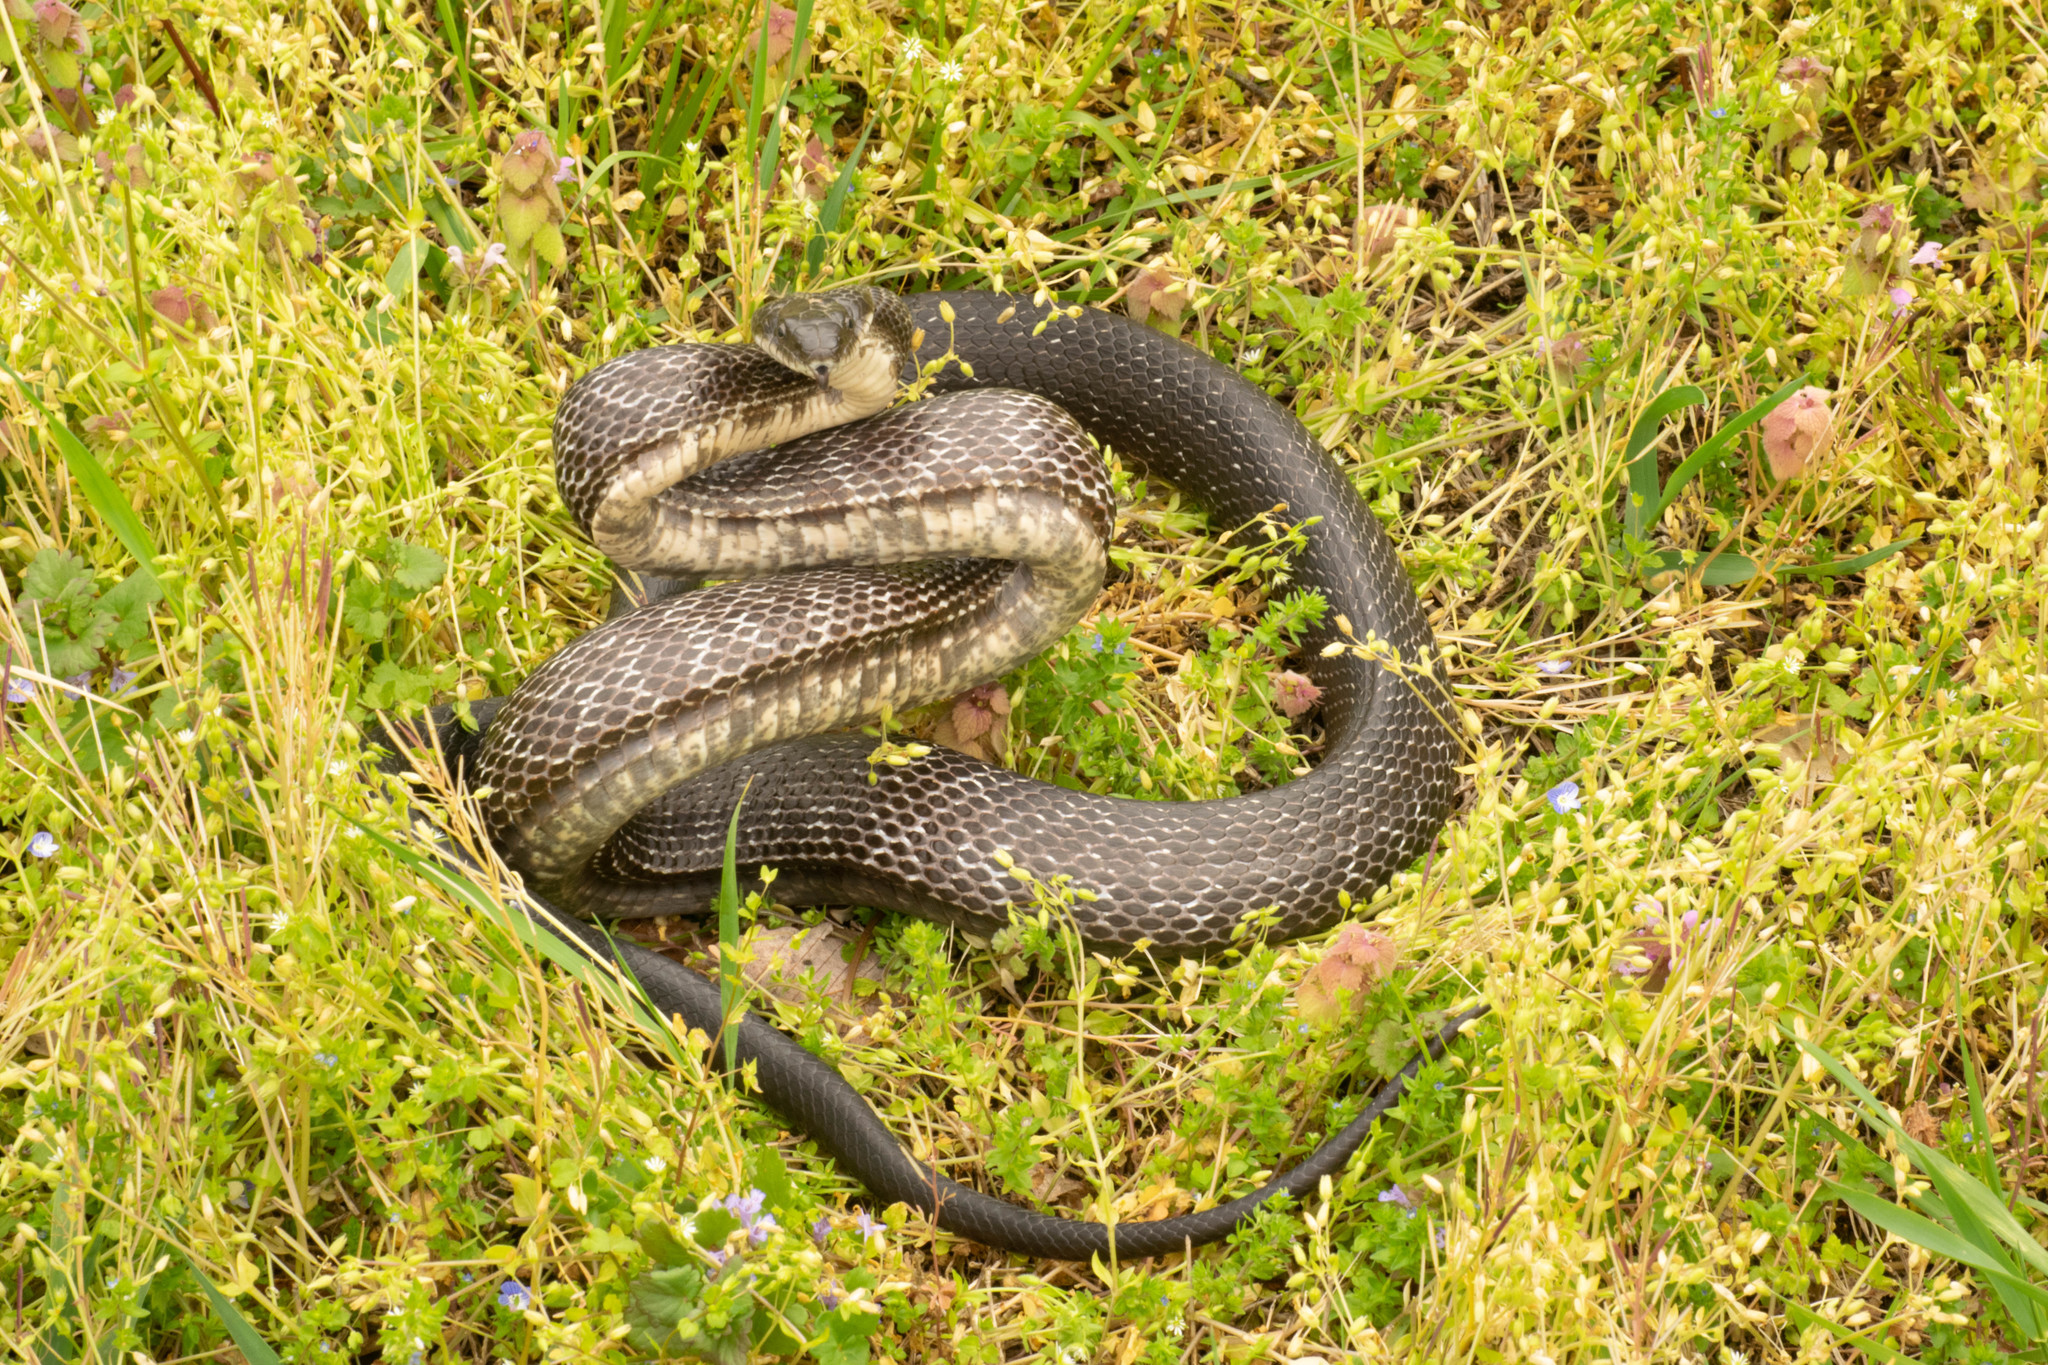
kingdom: Animalia
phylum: Chordata
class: Squamata
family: Colubridae
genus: Pantherophis
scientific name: Pantherophis alleghaniensis
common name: Eastern rat snake
